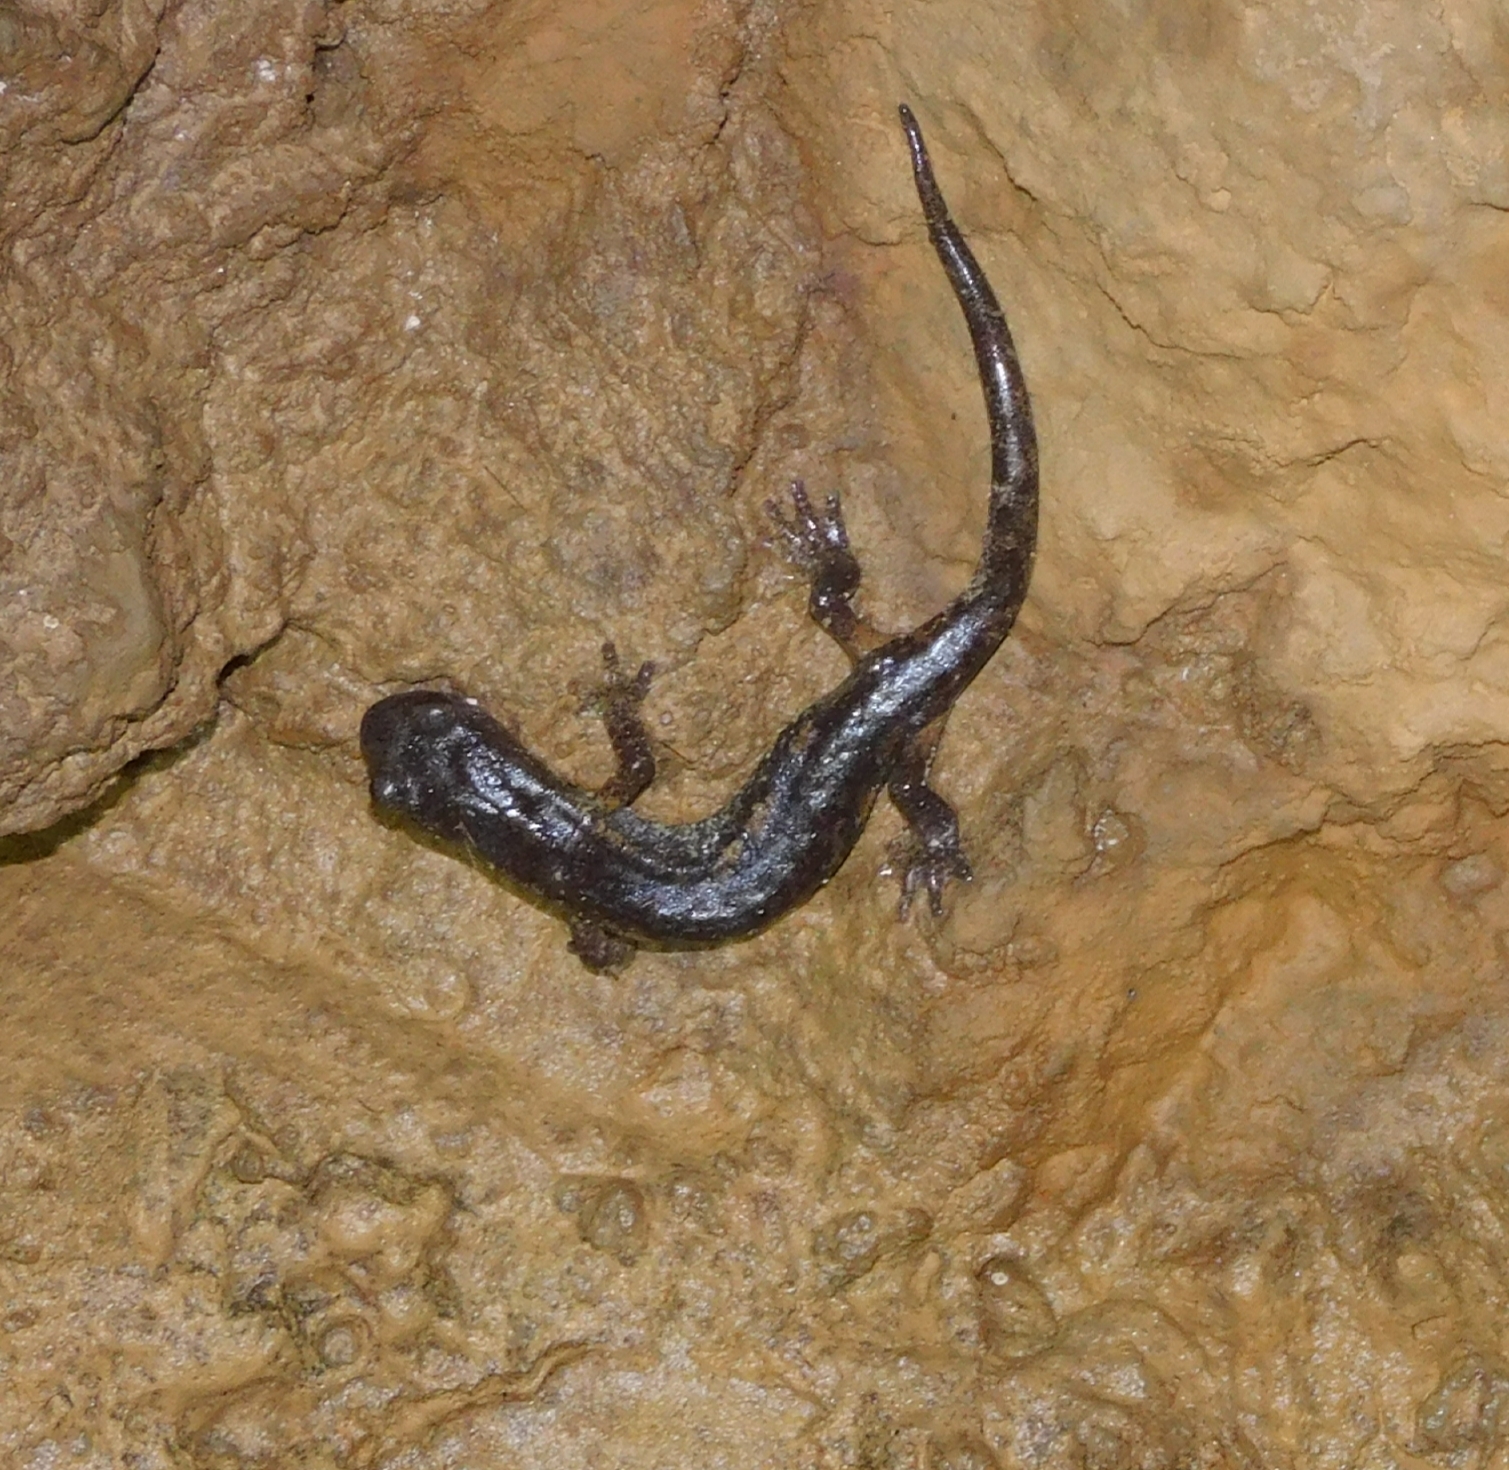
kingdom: Animalia
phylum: Chordata
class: Amphibia
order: Caudata
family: Plethodontidae
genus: Speleomantes
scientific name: Speleomantes ambrosii
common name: Ambrosi's cave salamander
